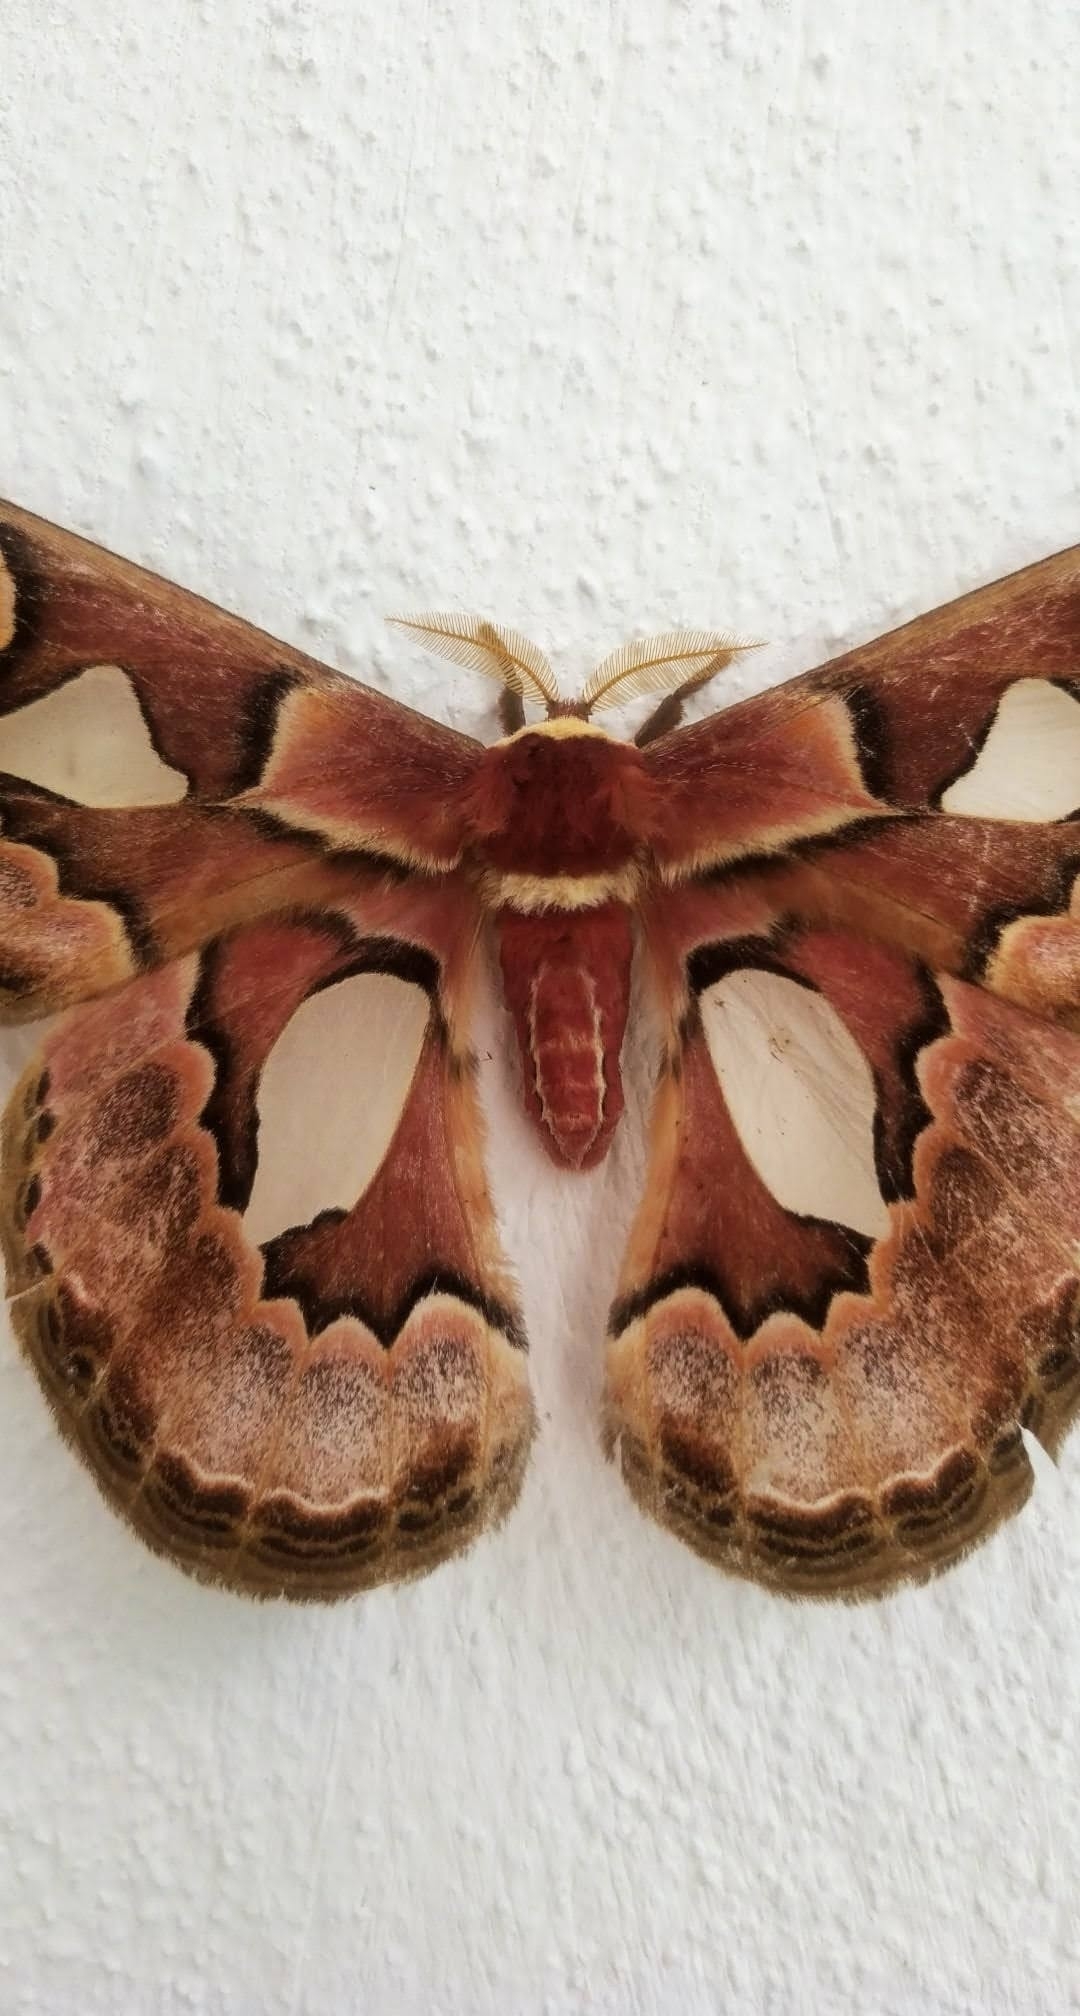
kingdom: Animalia
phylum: Arthropoda
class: Insecta
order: Lepidoptera
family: Saturniidae
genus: Rothschildia
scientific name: Rothschildia erycina
